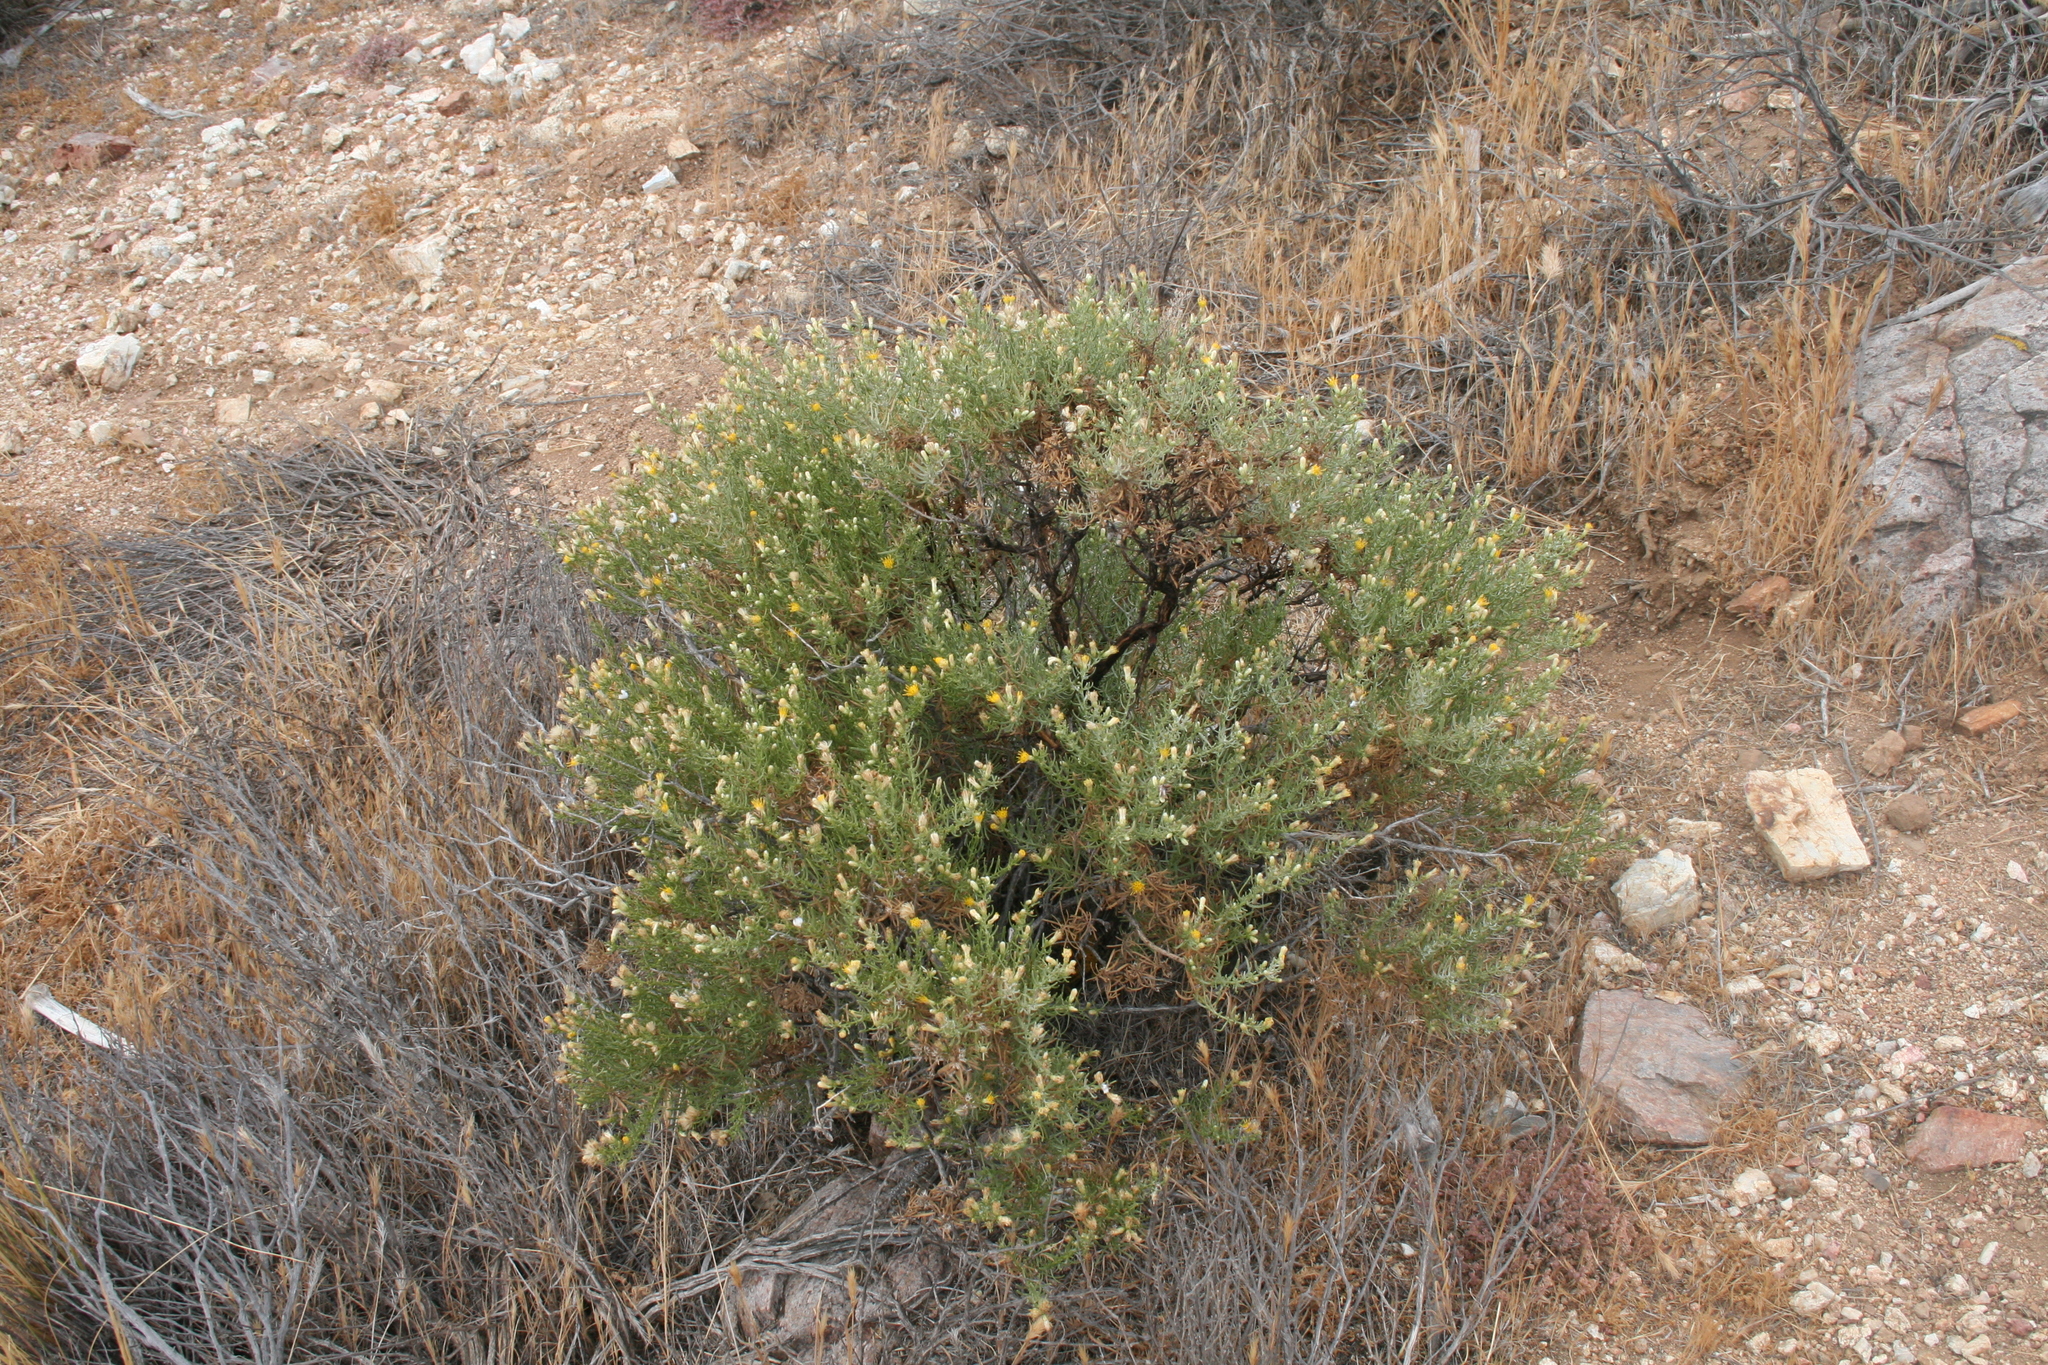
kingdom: Plantae
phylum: Tracheophyta
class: Magnoliopsida
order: Asterales
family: Asteraceae
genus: Ericameria
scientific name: Ericameria brachylepis
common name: Boundary goldenbush
